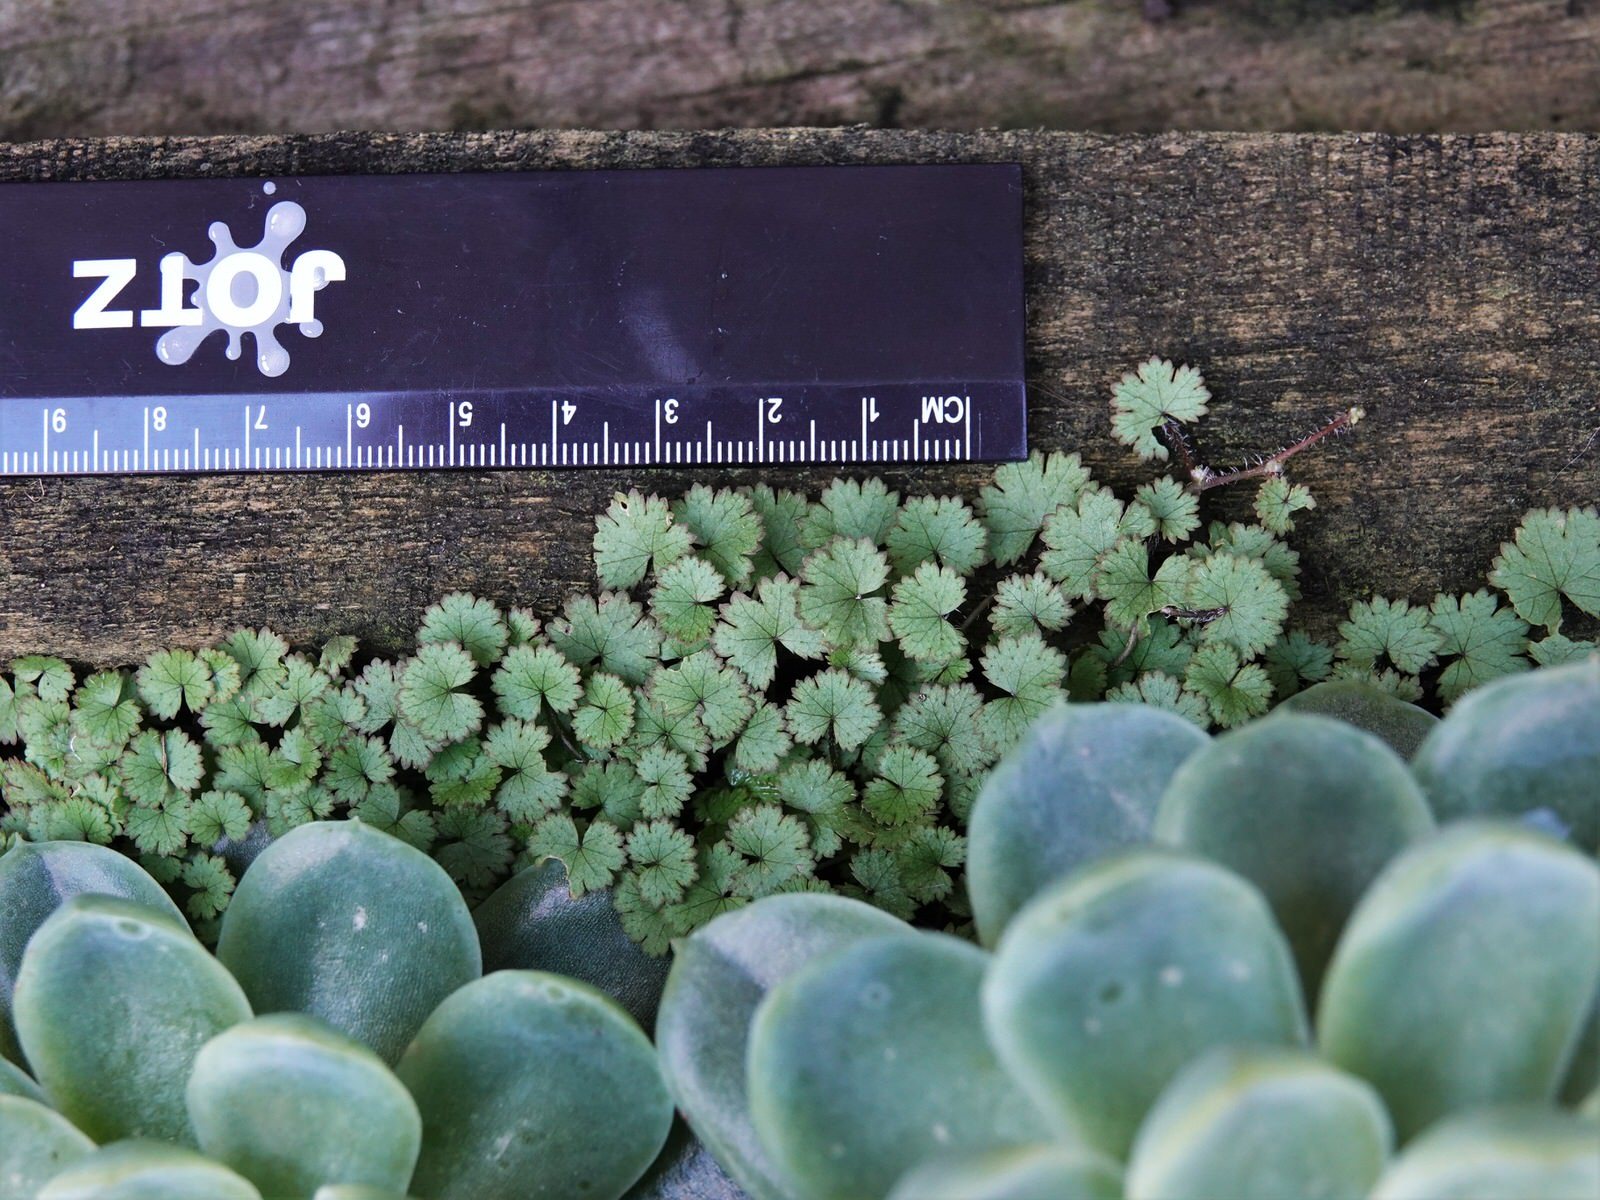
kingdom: Plantae
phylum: Tracheophyta
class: Magnoliopsida
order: Apiales
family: Araliaceae
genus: Hydrocotyle
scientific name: Hydrocotyle moschata
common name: Hairy pennywort
